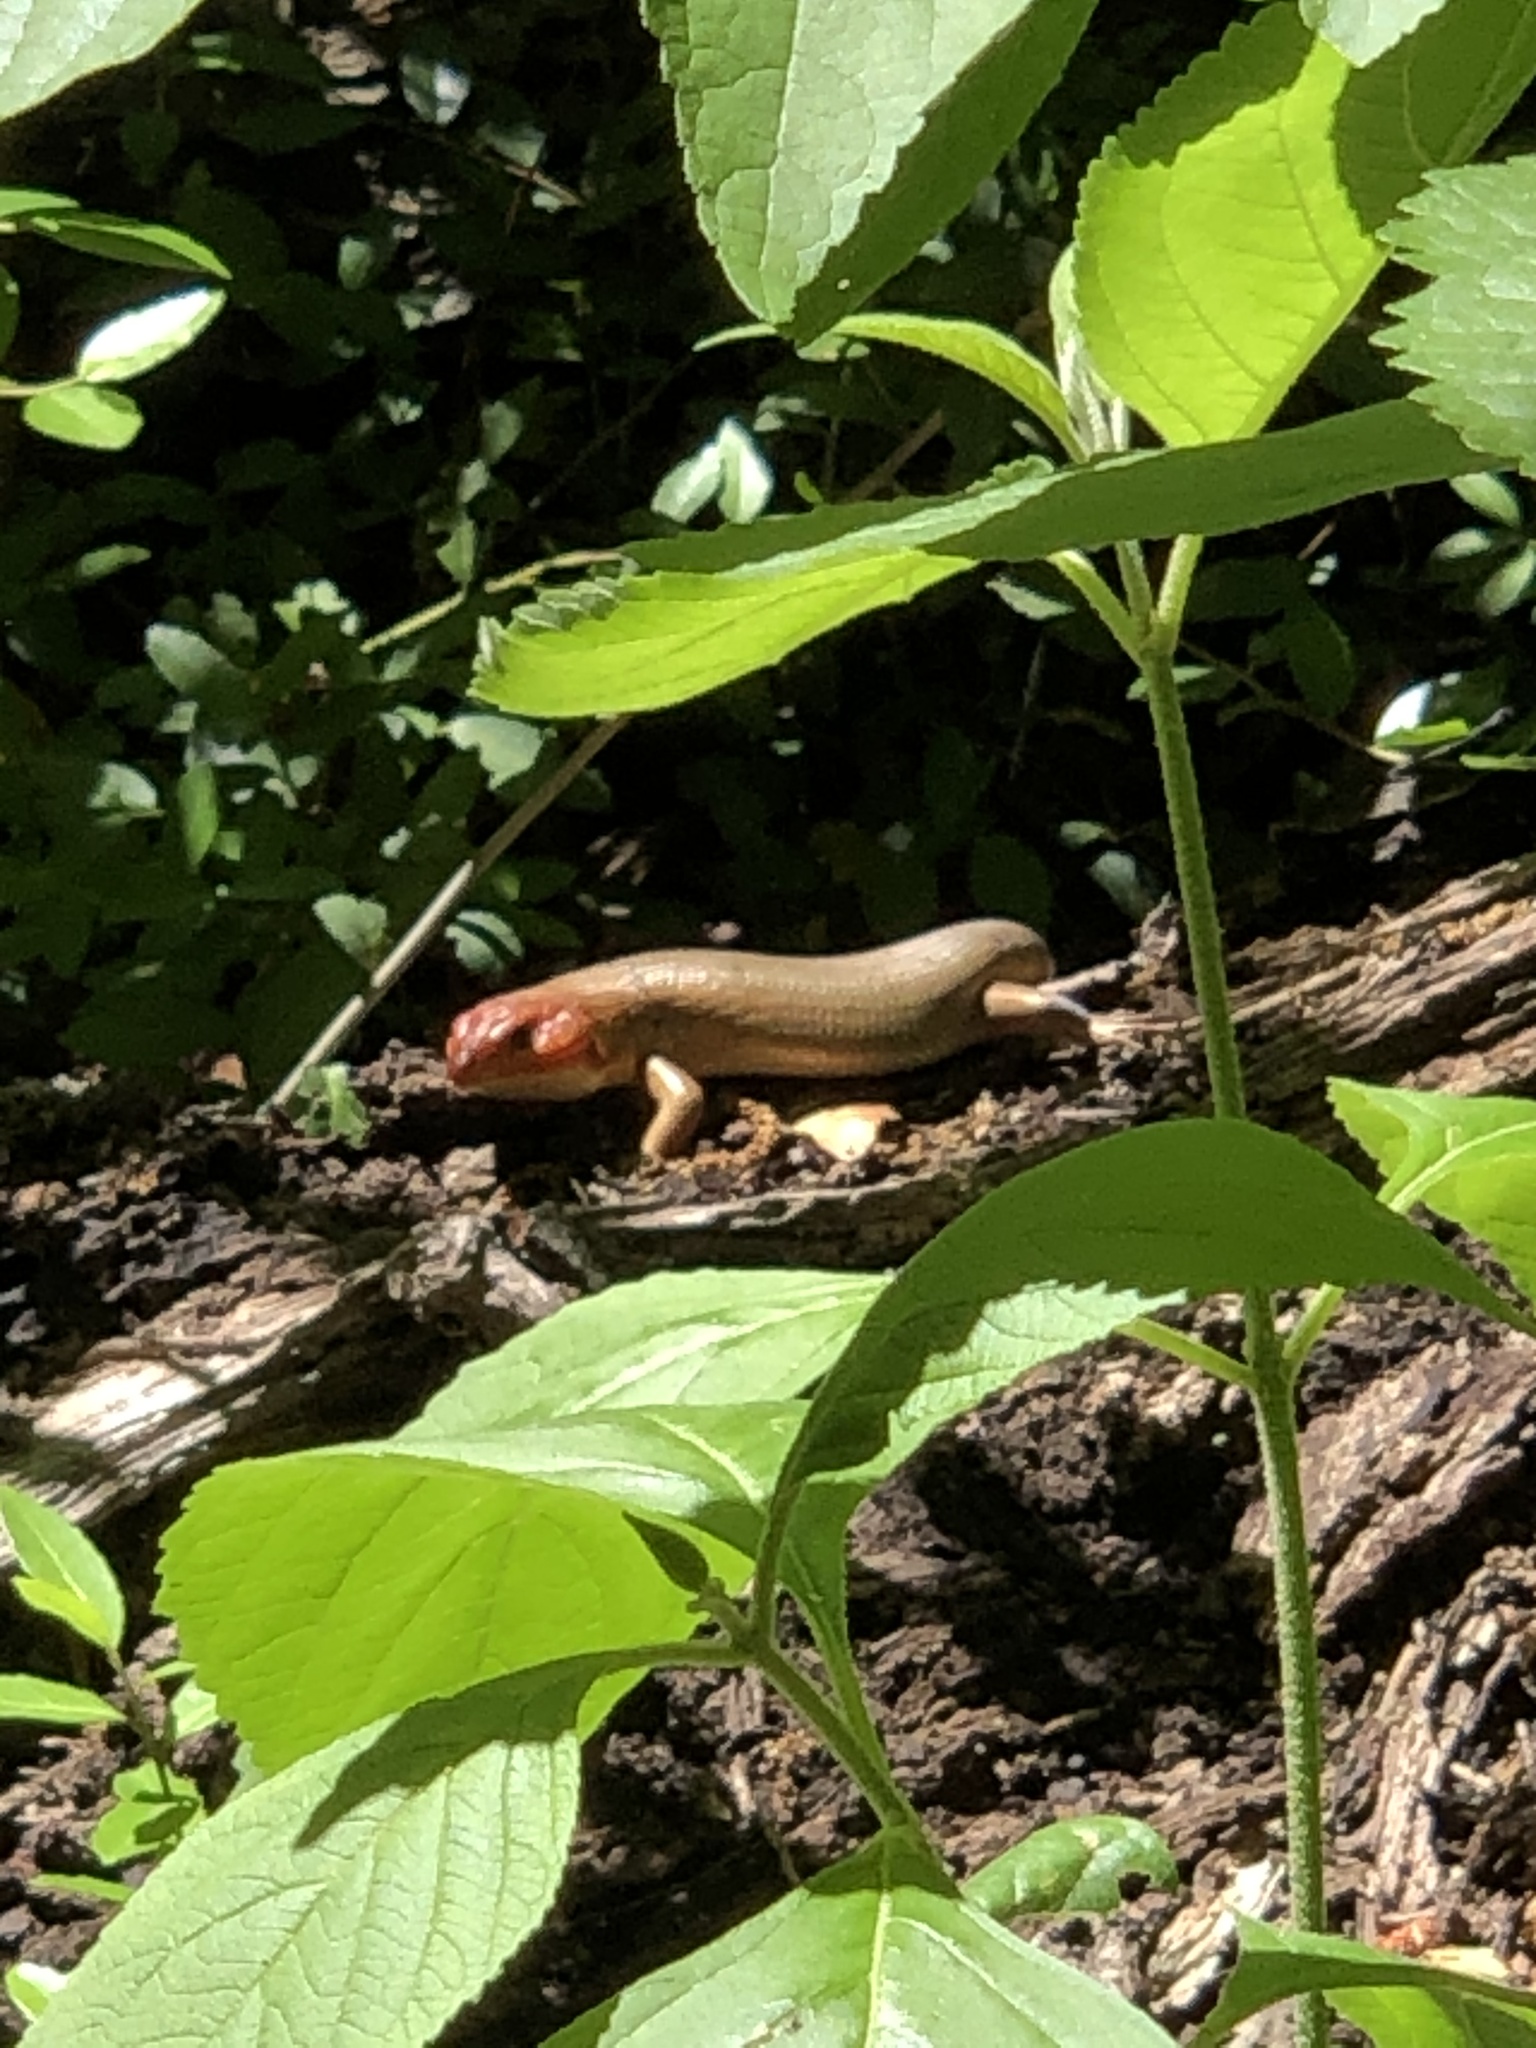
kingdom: Animalia
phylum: Chordata
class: Squamata
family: Scincidae
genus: Plestiodon
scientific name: Plestiodon laticeps
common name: Broadhead skink
